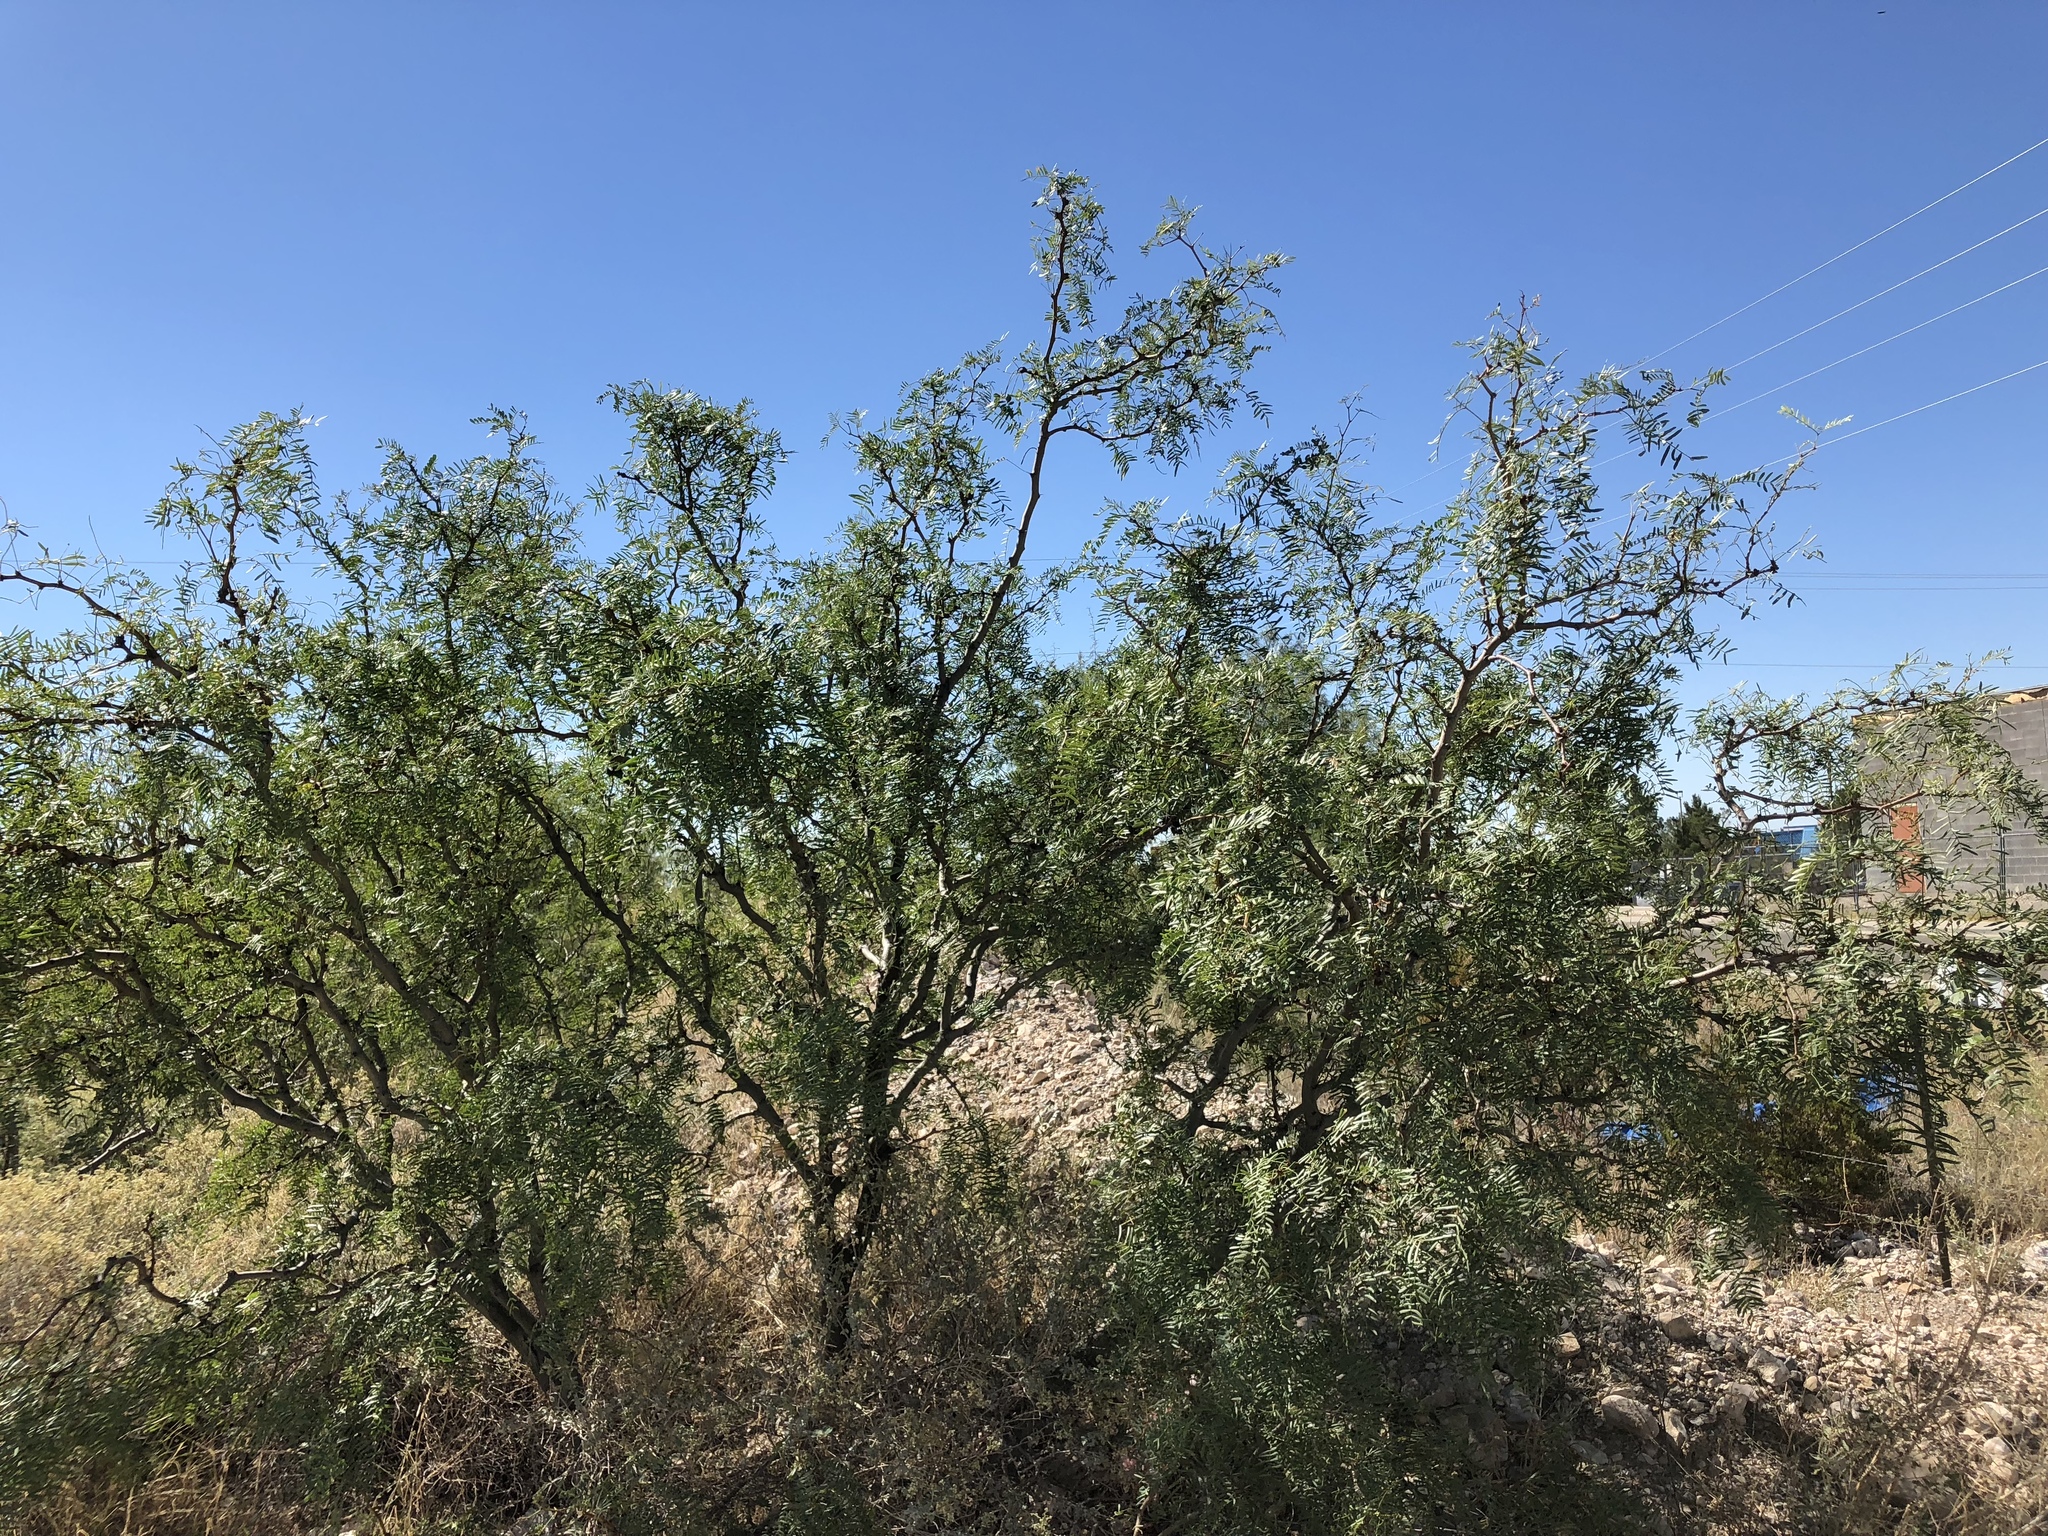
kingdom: Plantae
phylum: Tracheophyta
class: Magnoliopsida
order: Fabales
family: Fabaceae
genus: Prosopis
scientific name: Prosopis glandulosa
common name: Honey mesquite
